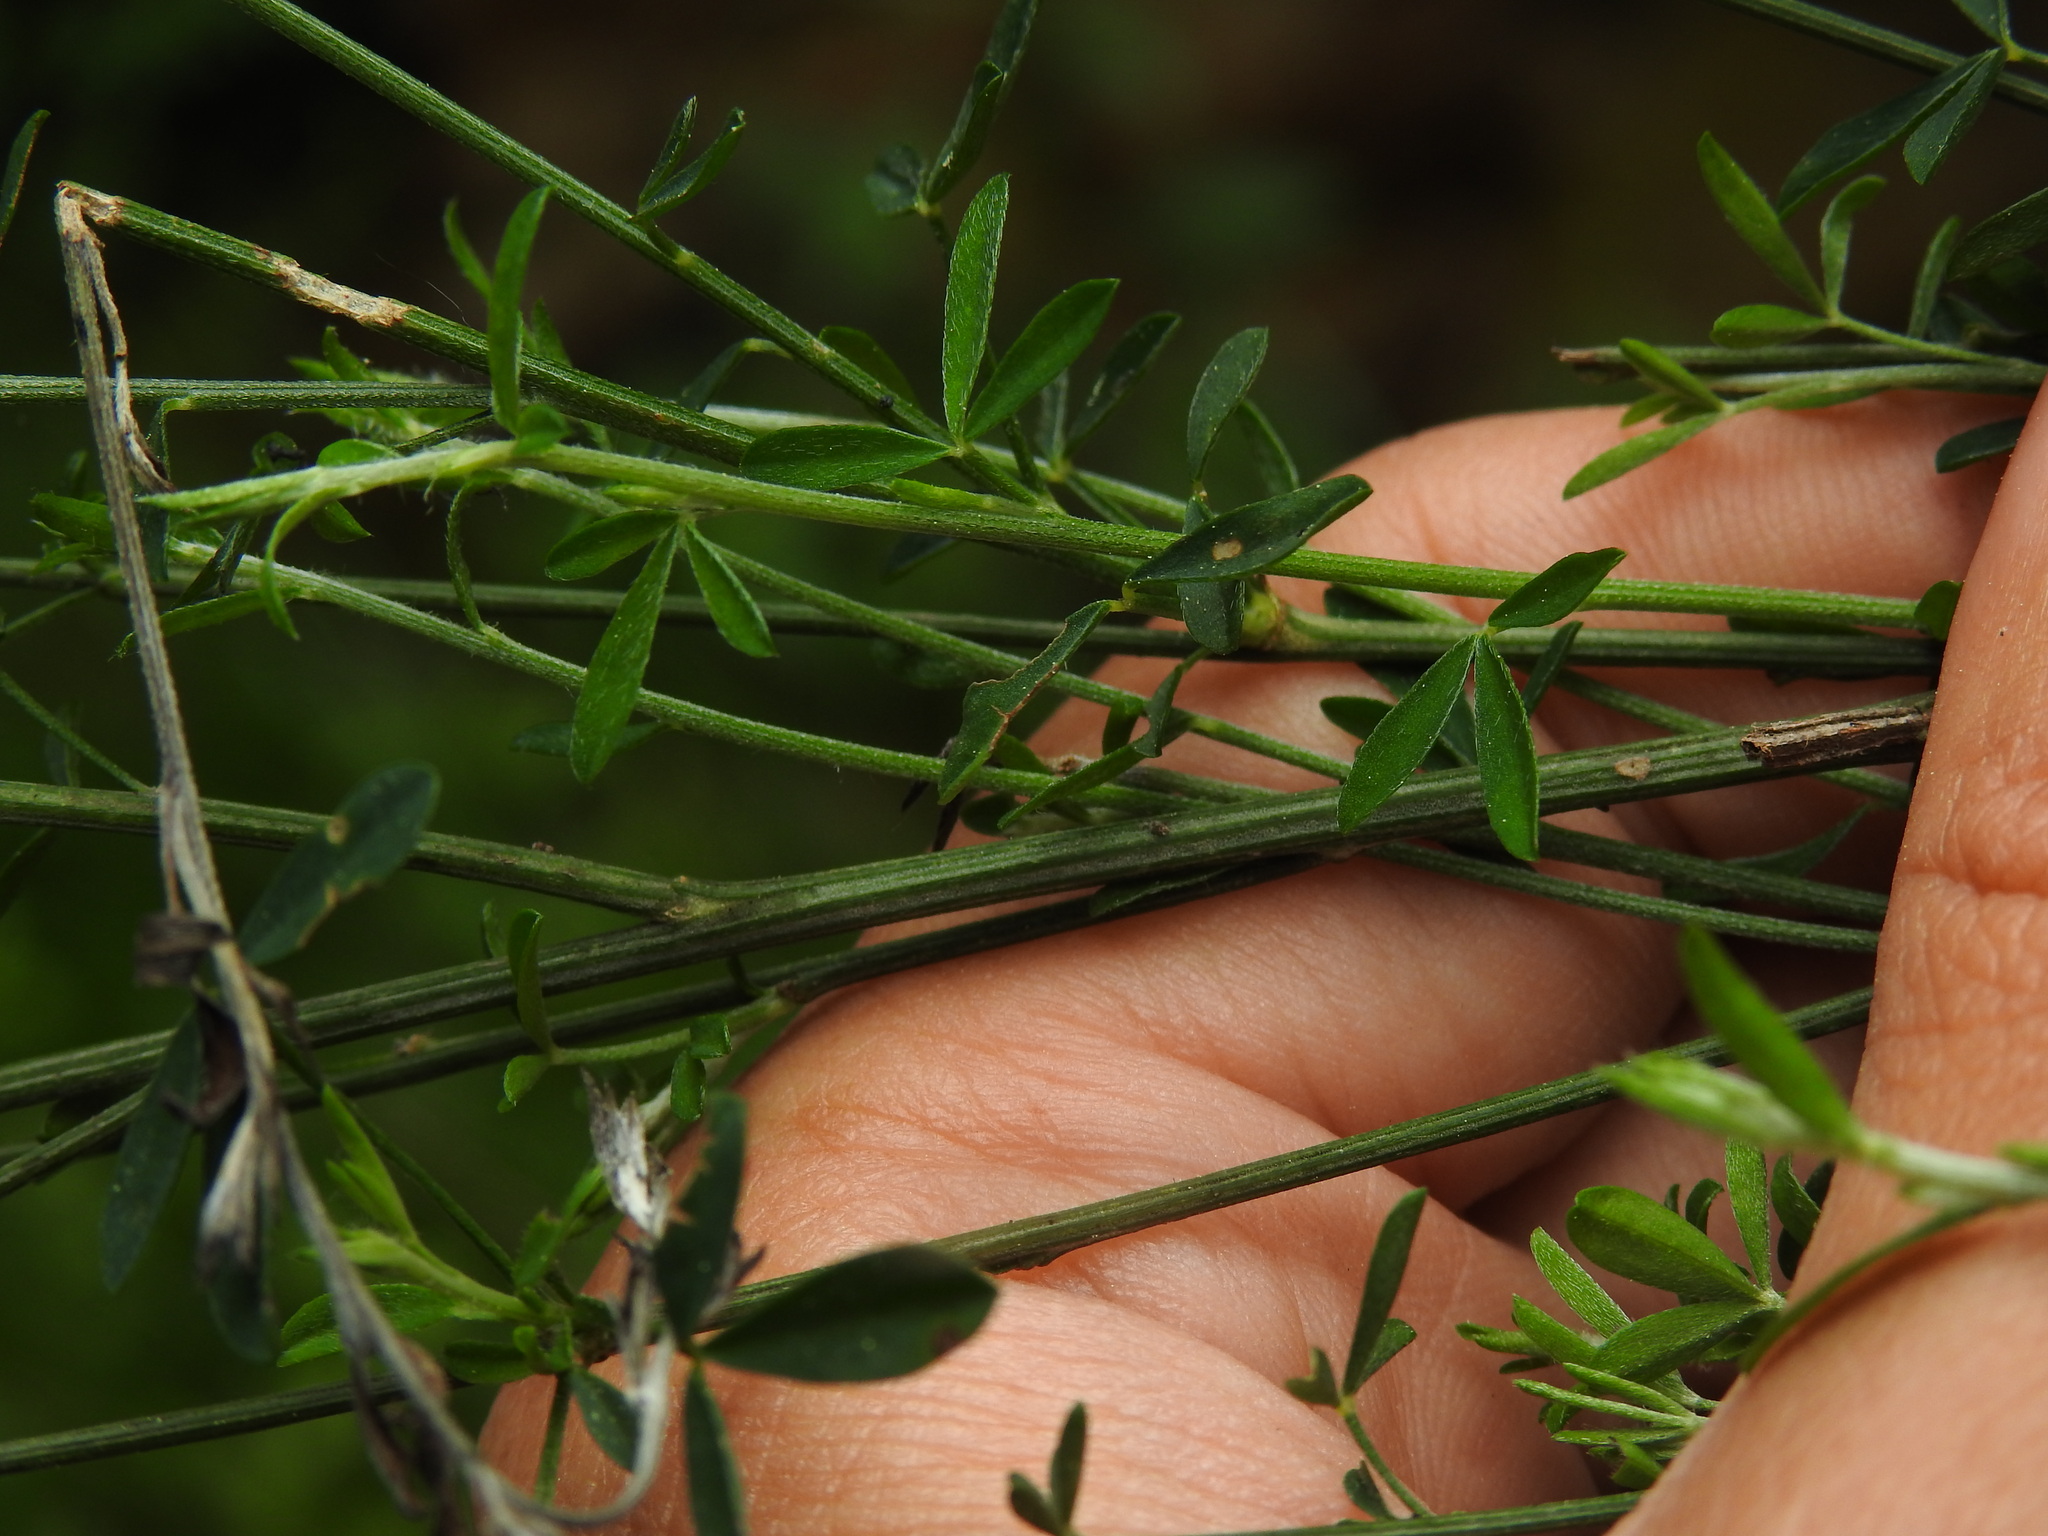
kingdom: Plantae
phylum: Tracheophyta
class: Magnoliopsida
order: Fabales
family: Fabaceae
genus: Cytisus
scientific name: Cytisus striatus
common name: Hairy-fruited broom
